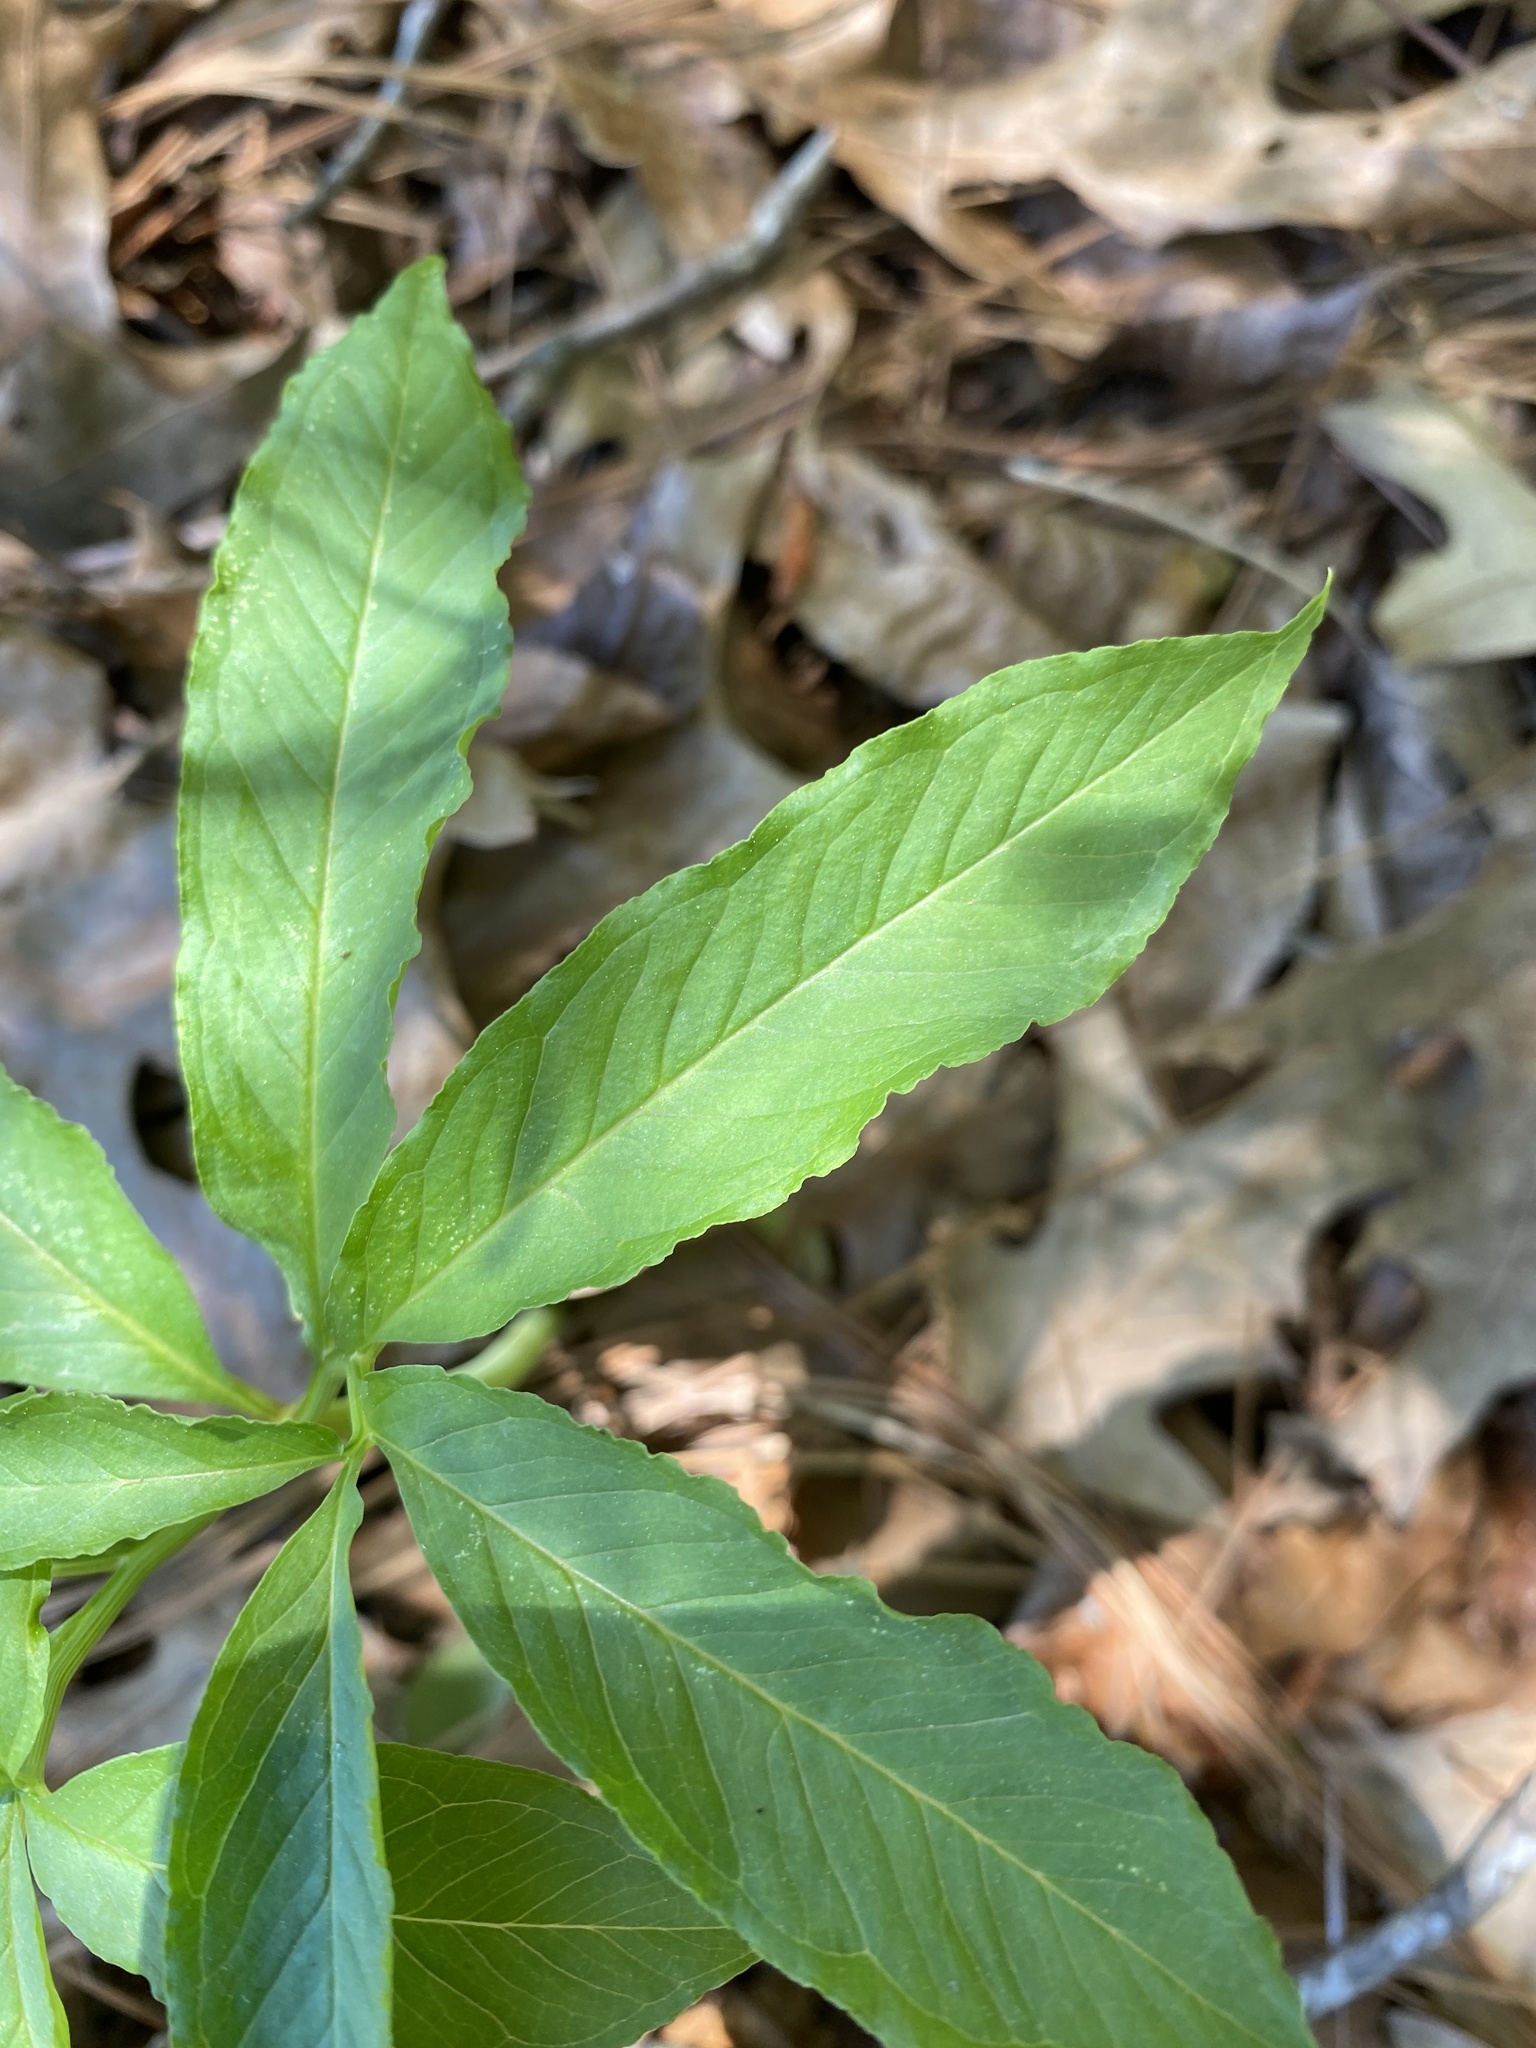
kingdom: Plantae
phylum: Tracheophyta
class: Liliopsida
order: Alismatales
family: Araceae
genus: Arisaema
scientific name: Arisaema dracontium
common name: Dragon-arum
